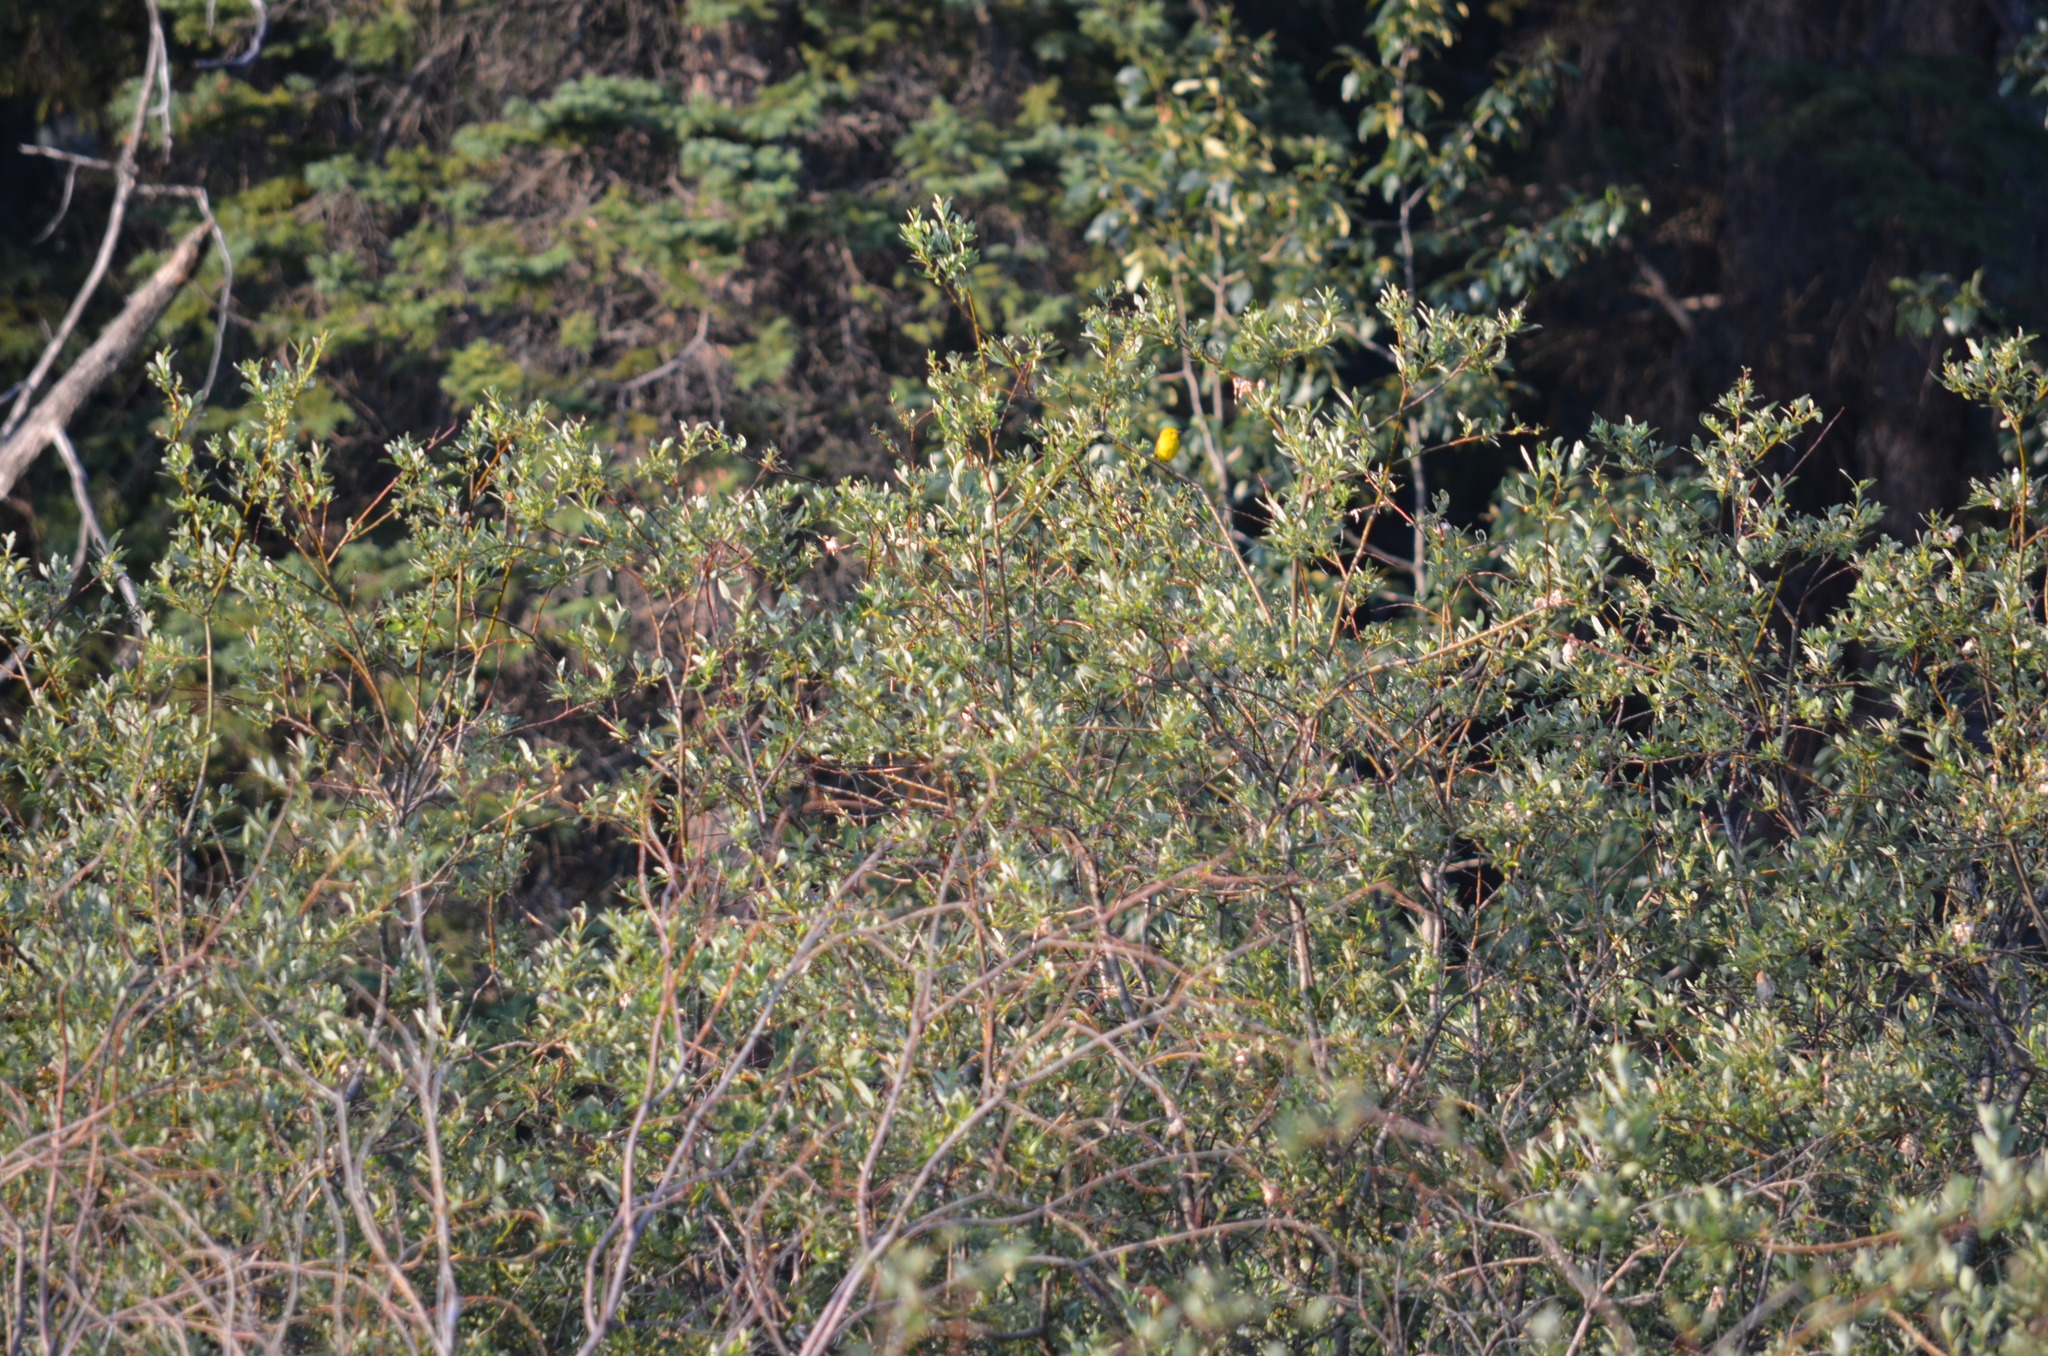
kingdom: Animalia
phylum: Chordata
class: Aves
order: Passeriformes
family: Parulidae
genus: Setophaga
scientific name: Setophaga petechia
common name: Yellow warbler
